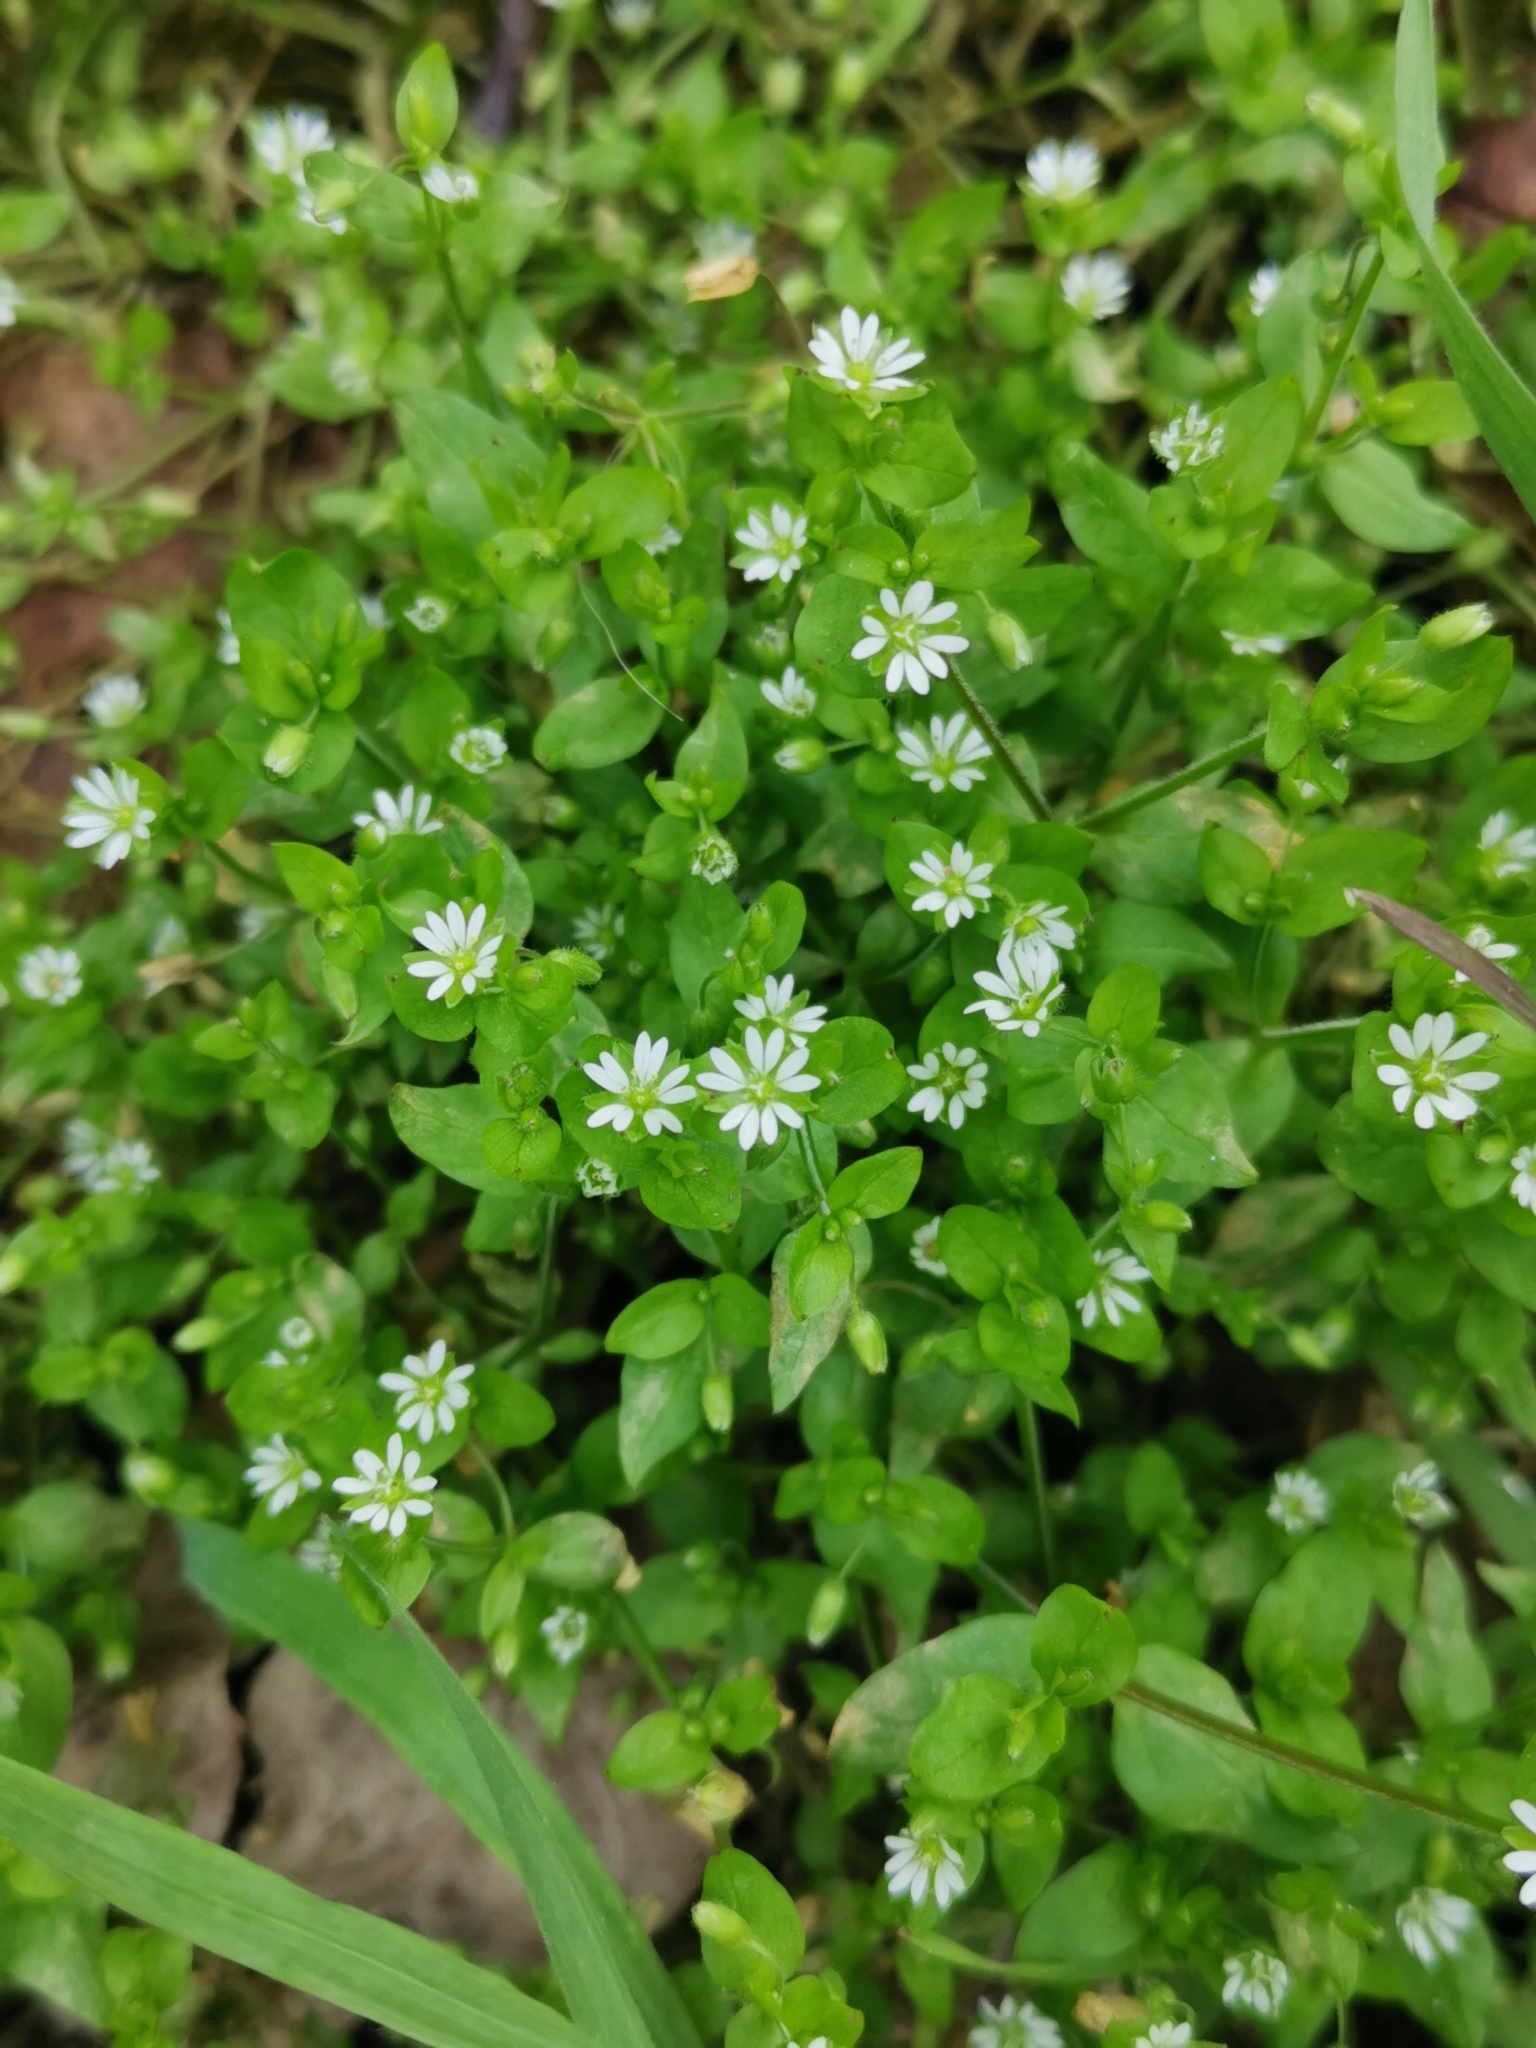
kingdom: Plantae
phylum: Tracheophyta
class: Magnoliopsida
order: Caryophyllales
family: Caryophyllaceae
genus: Stellaria
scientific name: Stellaria media
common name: Common chickweed
